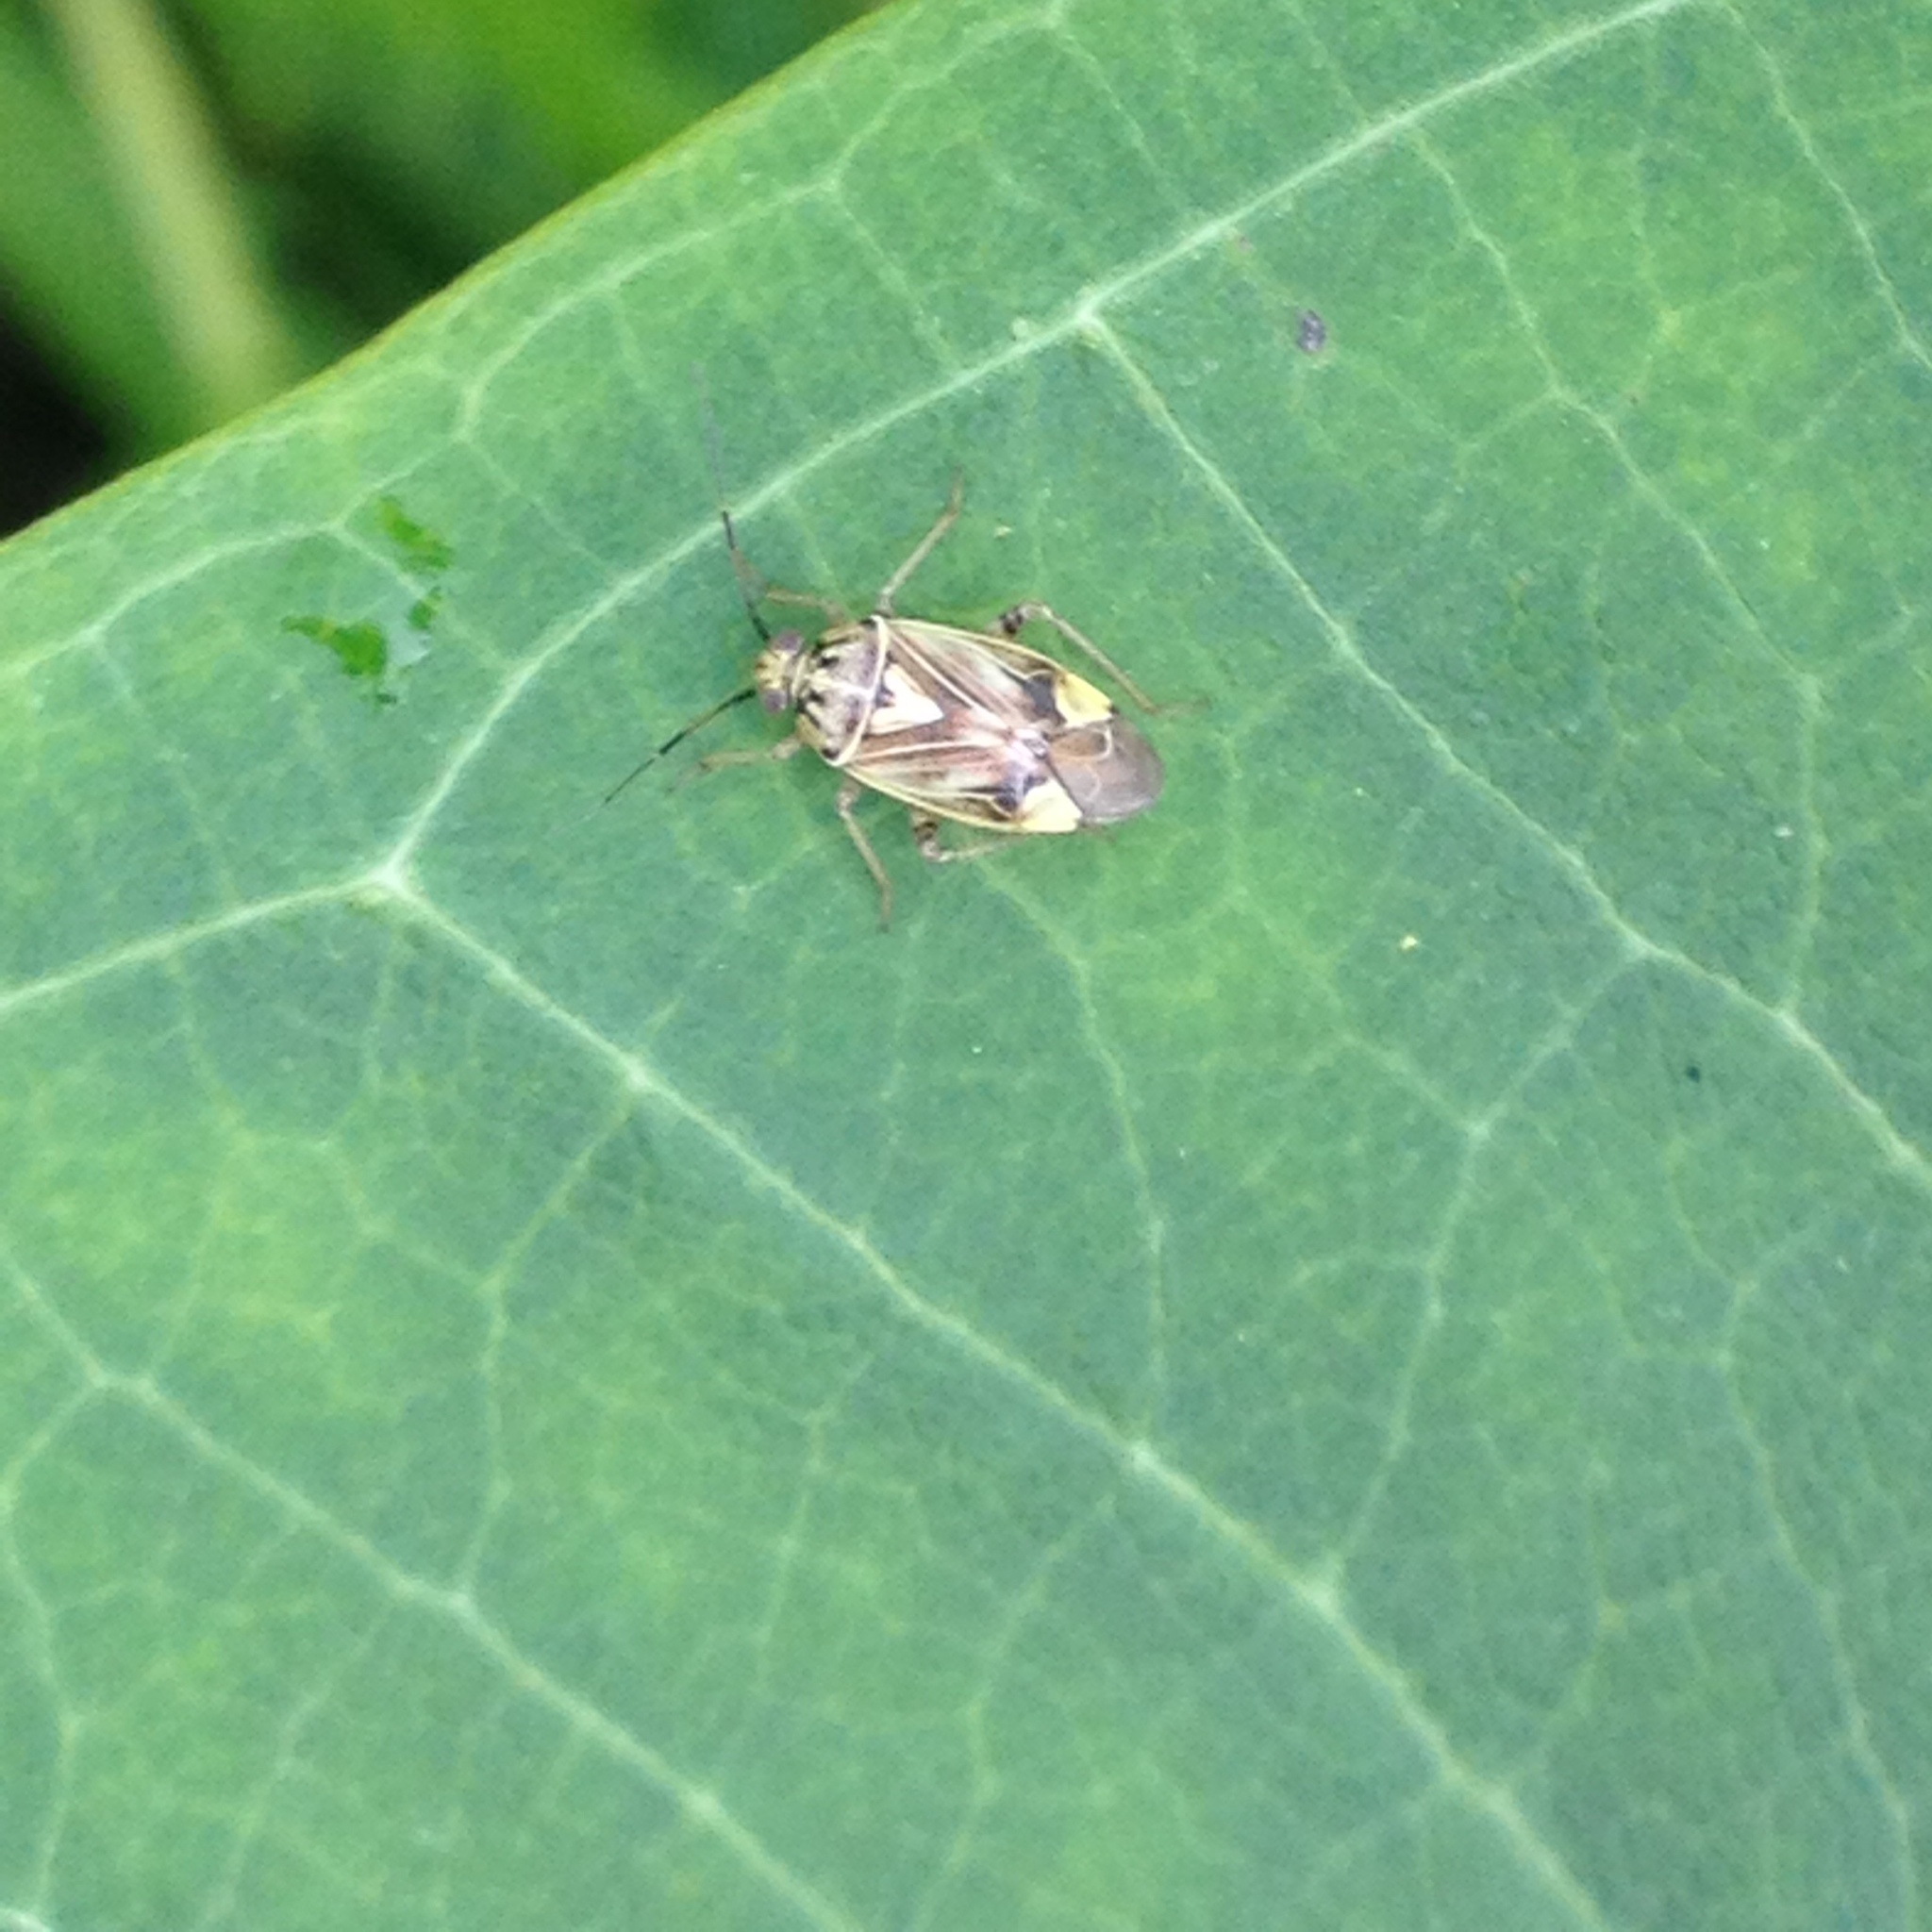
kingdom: Animalia
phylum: Arthropoda
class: Insecta
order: Hemiptera
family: Miridae
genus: Lygus
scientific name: Lygus lineolaris
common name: North american tarnished plant bug
